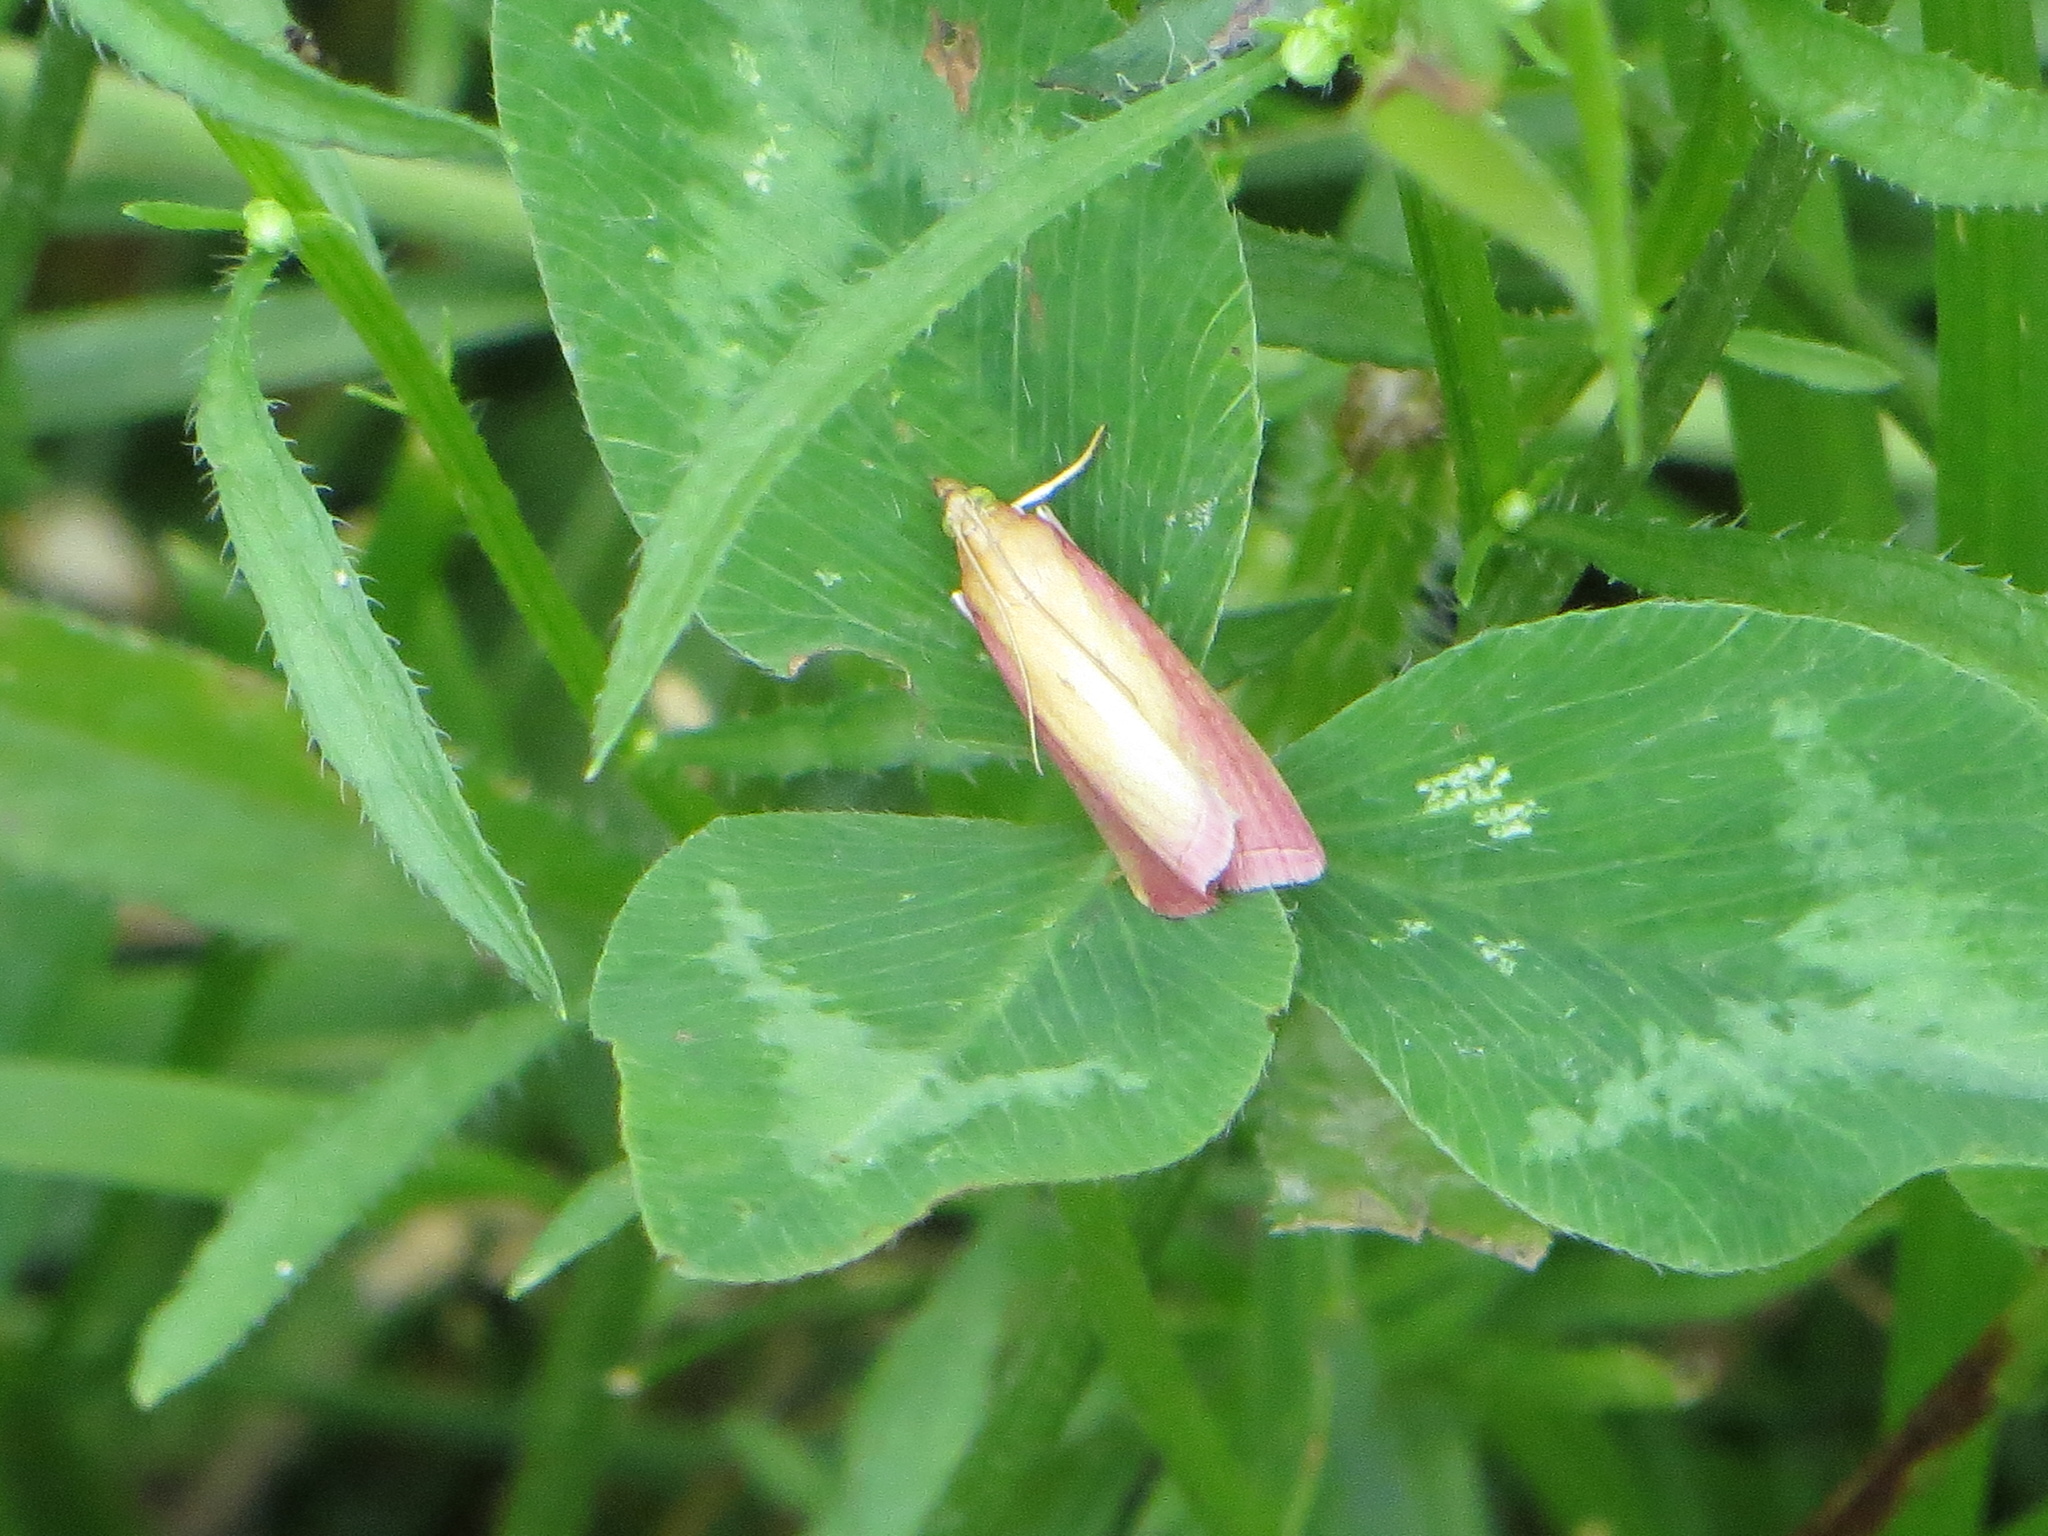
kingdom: Animalia
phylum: Arthropoda
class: Insecta
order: Lepidoptera
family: Pyralidae
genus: Oncocera
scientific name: Oncocera semirubella
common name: Rosy-striped knot-horn
